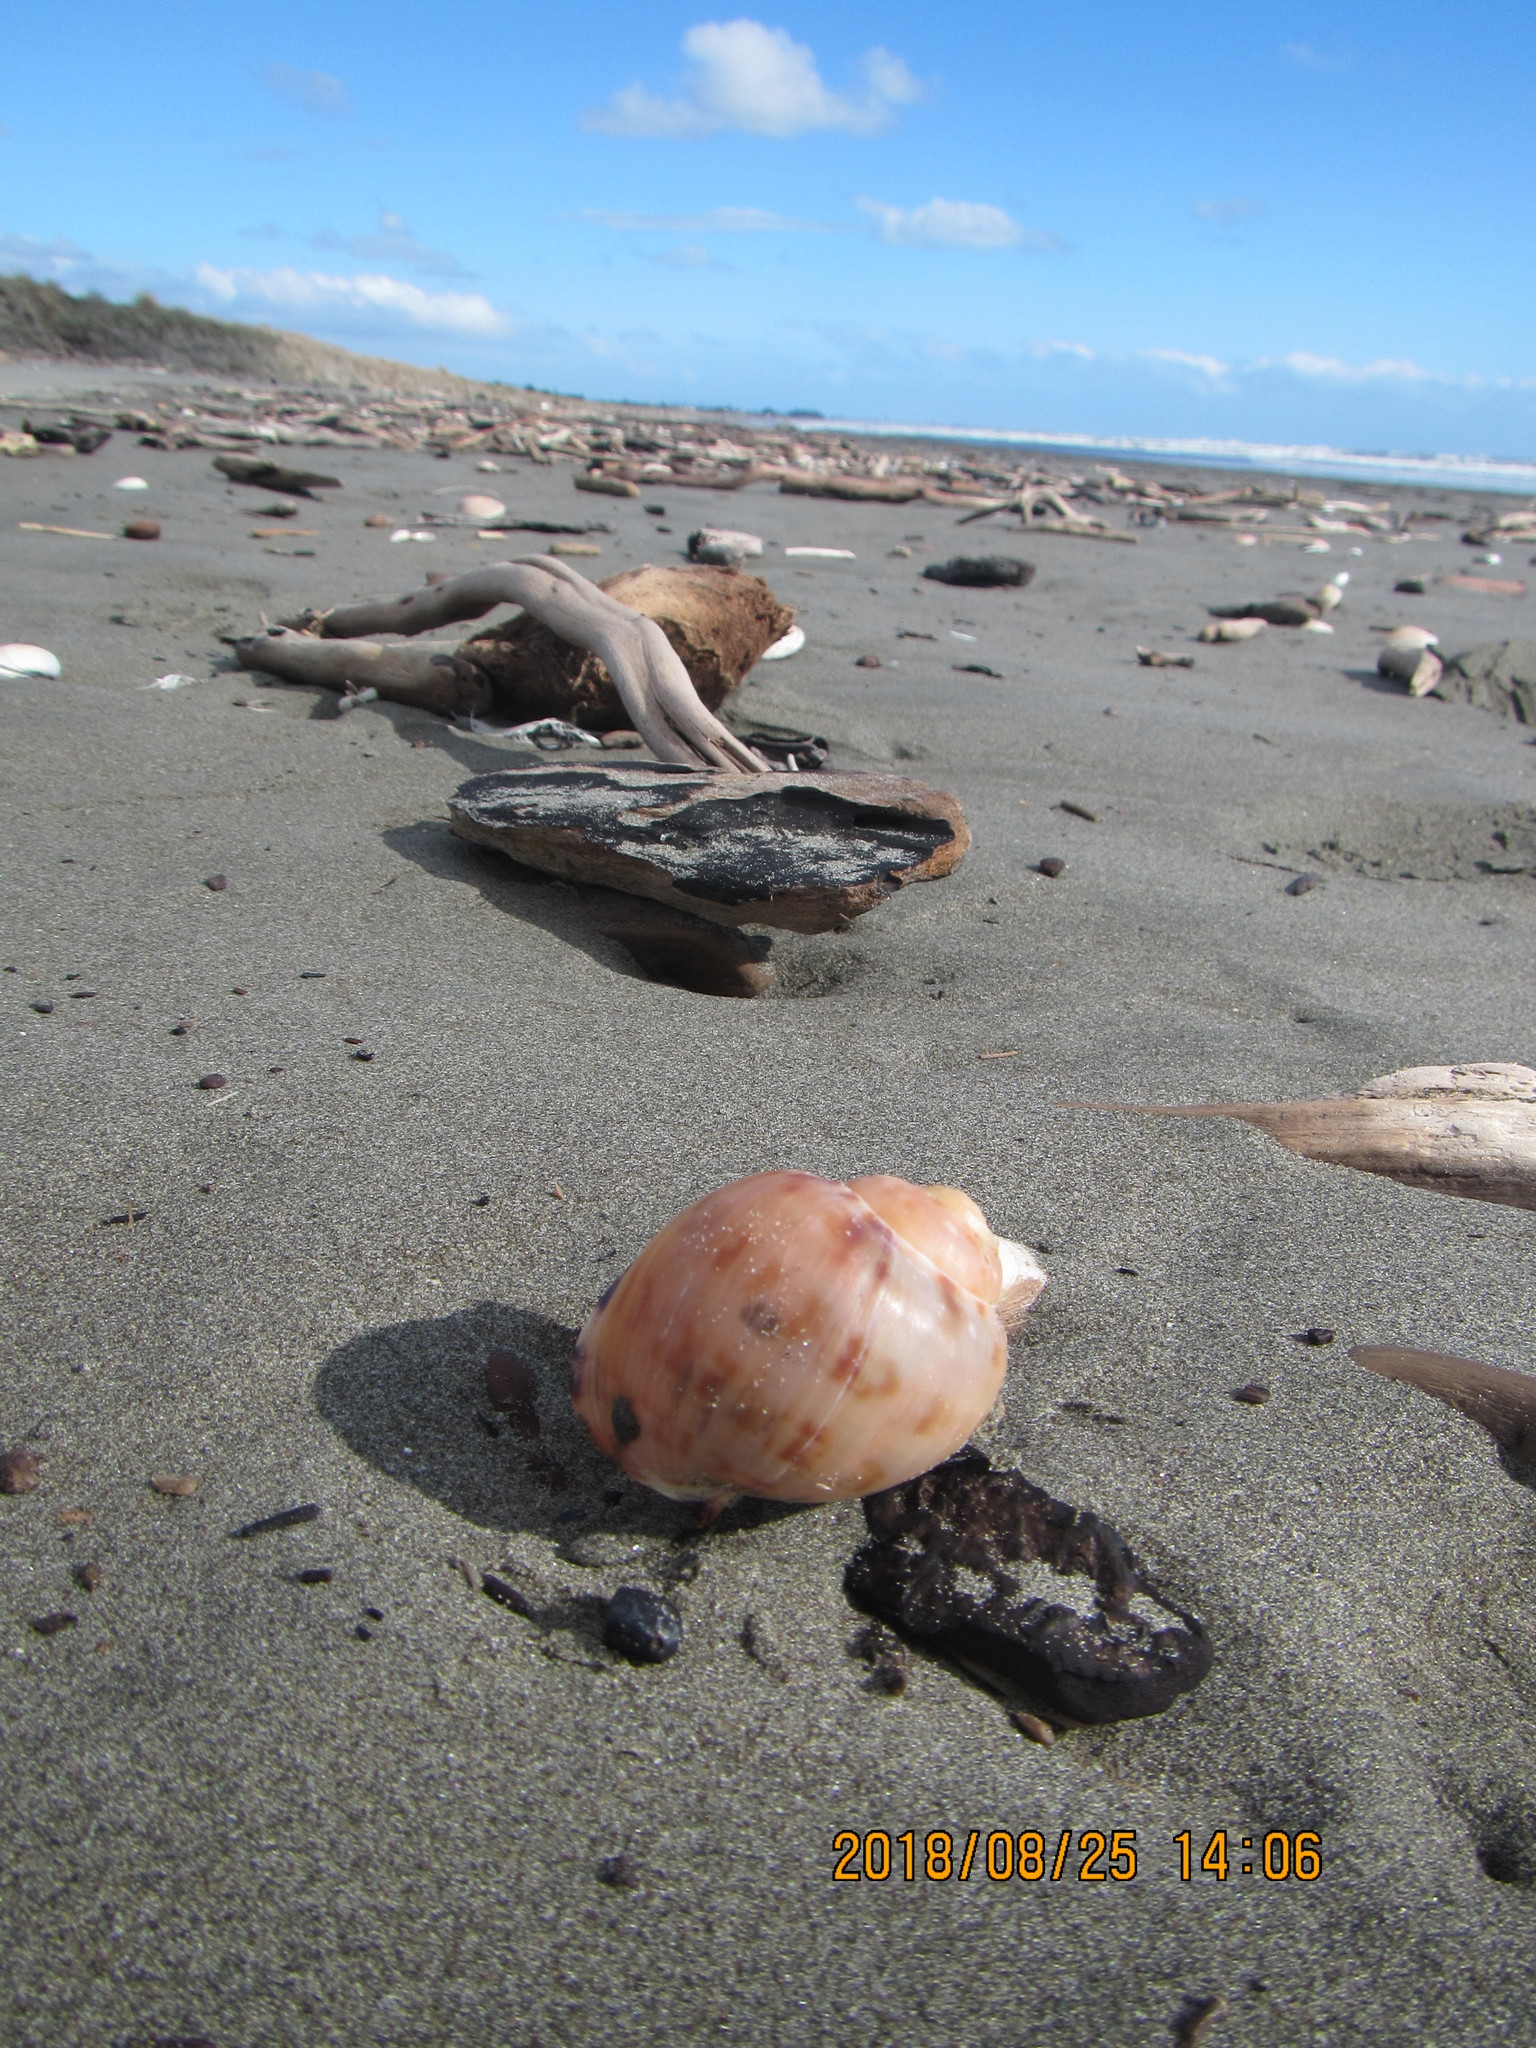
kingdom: Animalia
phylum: Mollusca
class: Gastropoda
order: Littorinimorpha
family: Cassidae
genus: Semicassis
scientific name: Semicassis pyrum
